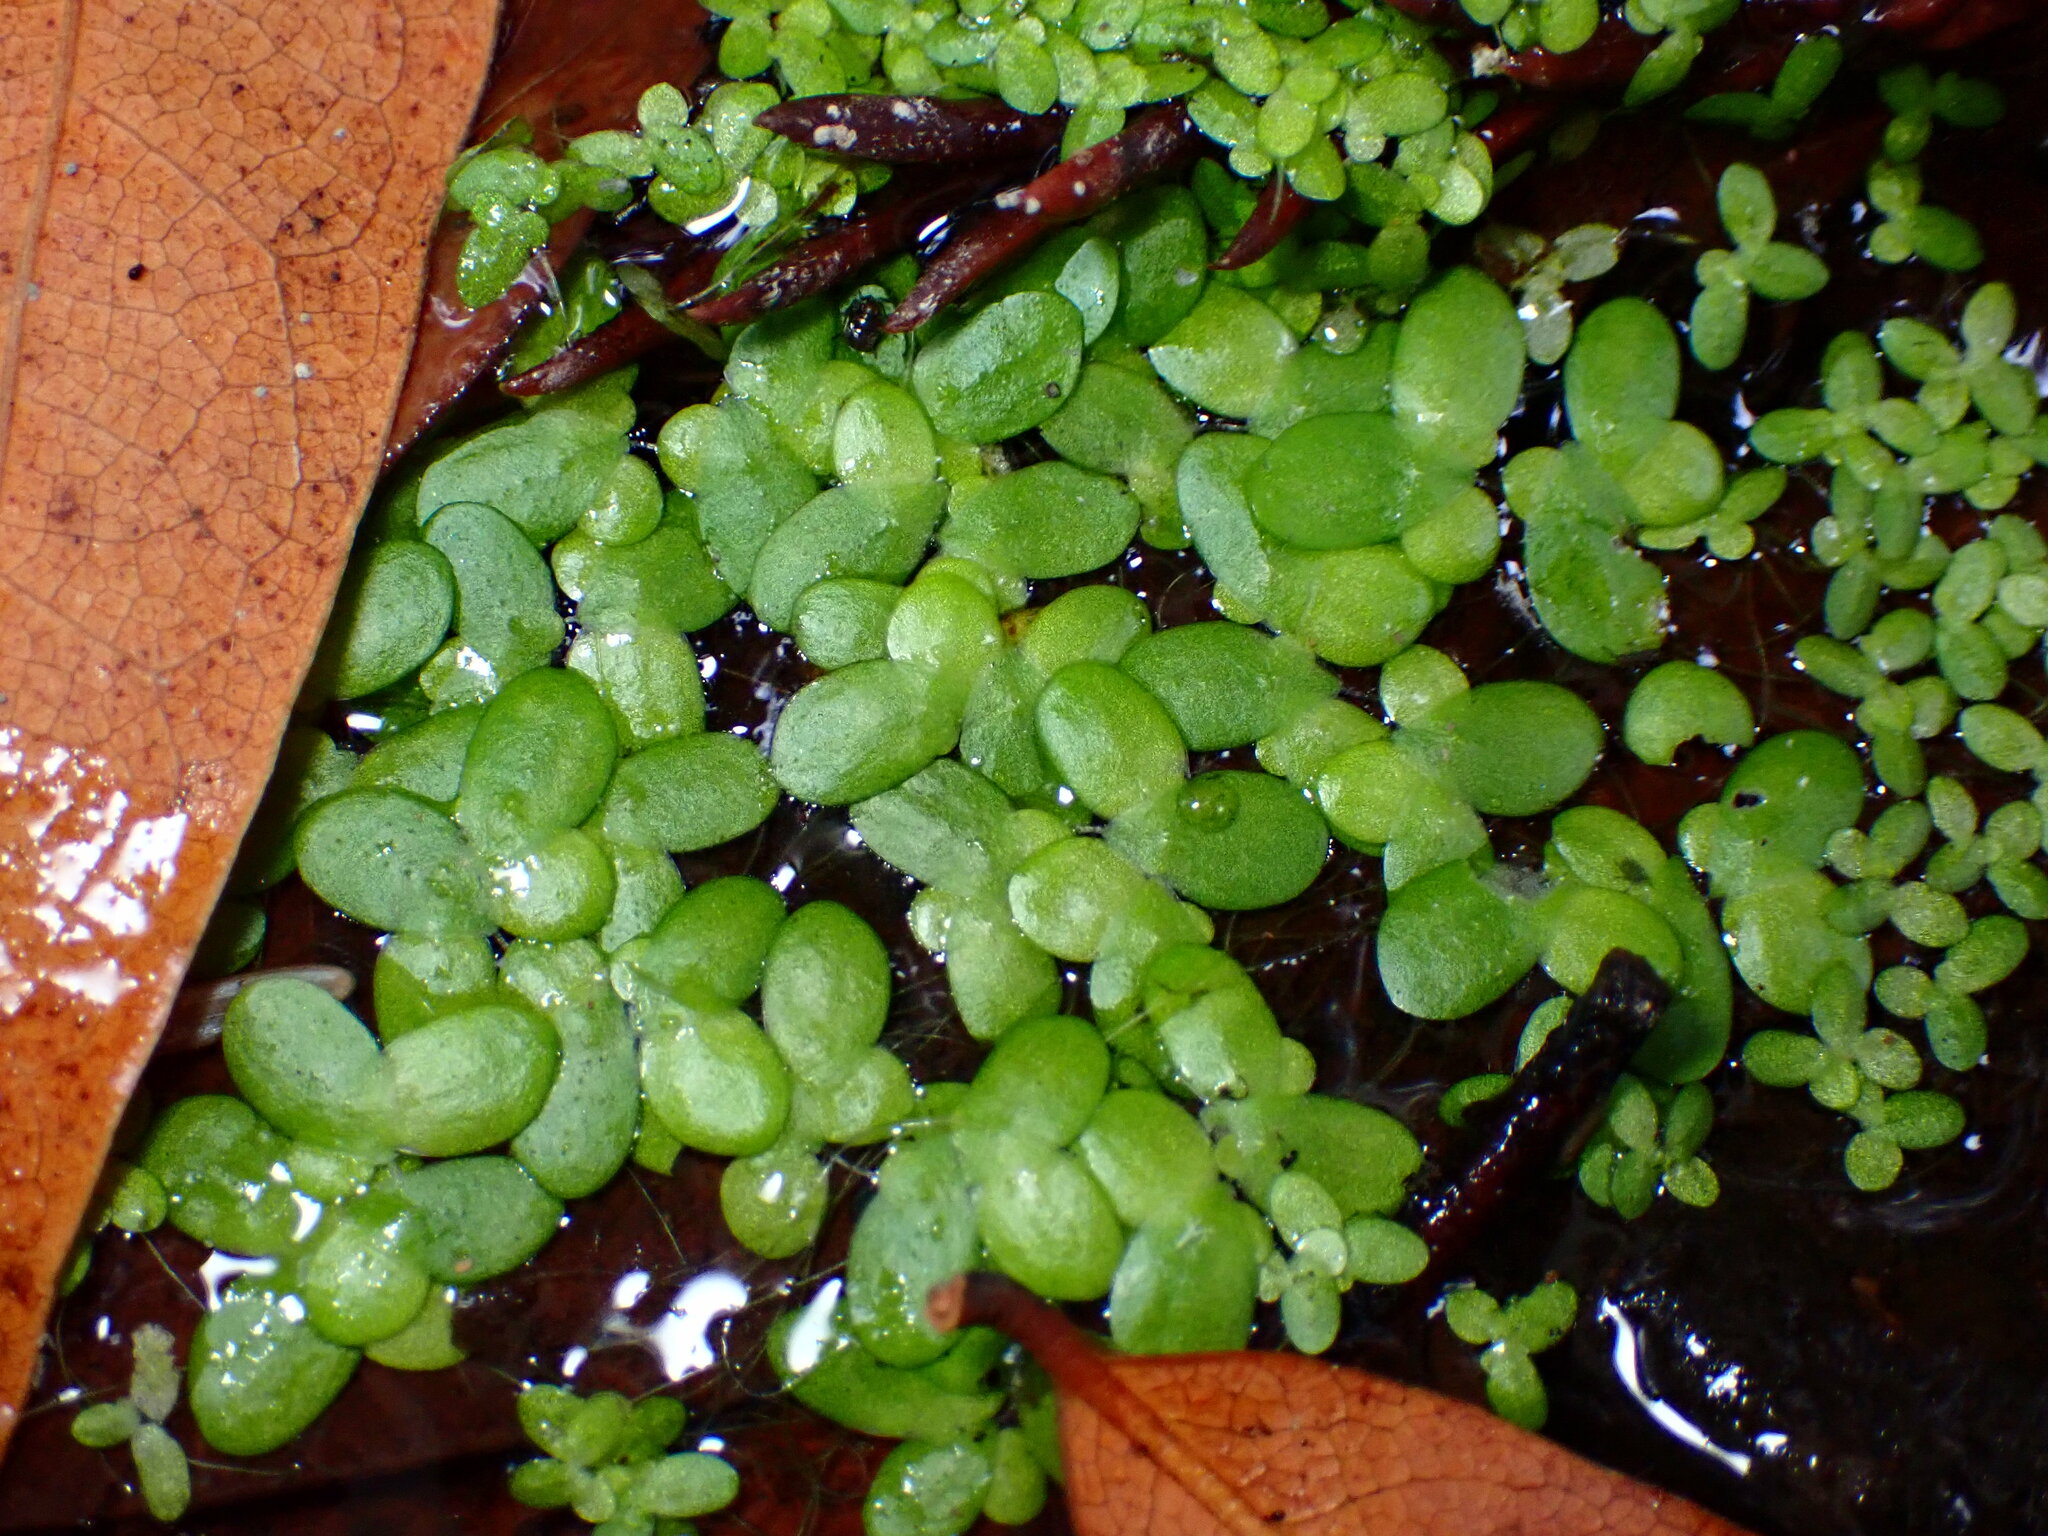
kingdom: Plantae
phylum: Tracheophyta
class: Liliopsida
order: Alismatales
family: Araceae
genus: Lemna
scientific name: Lemna minor
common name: Common duckweed
